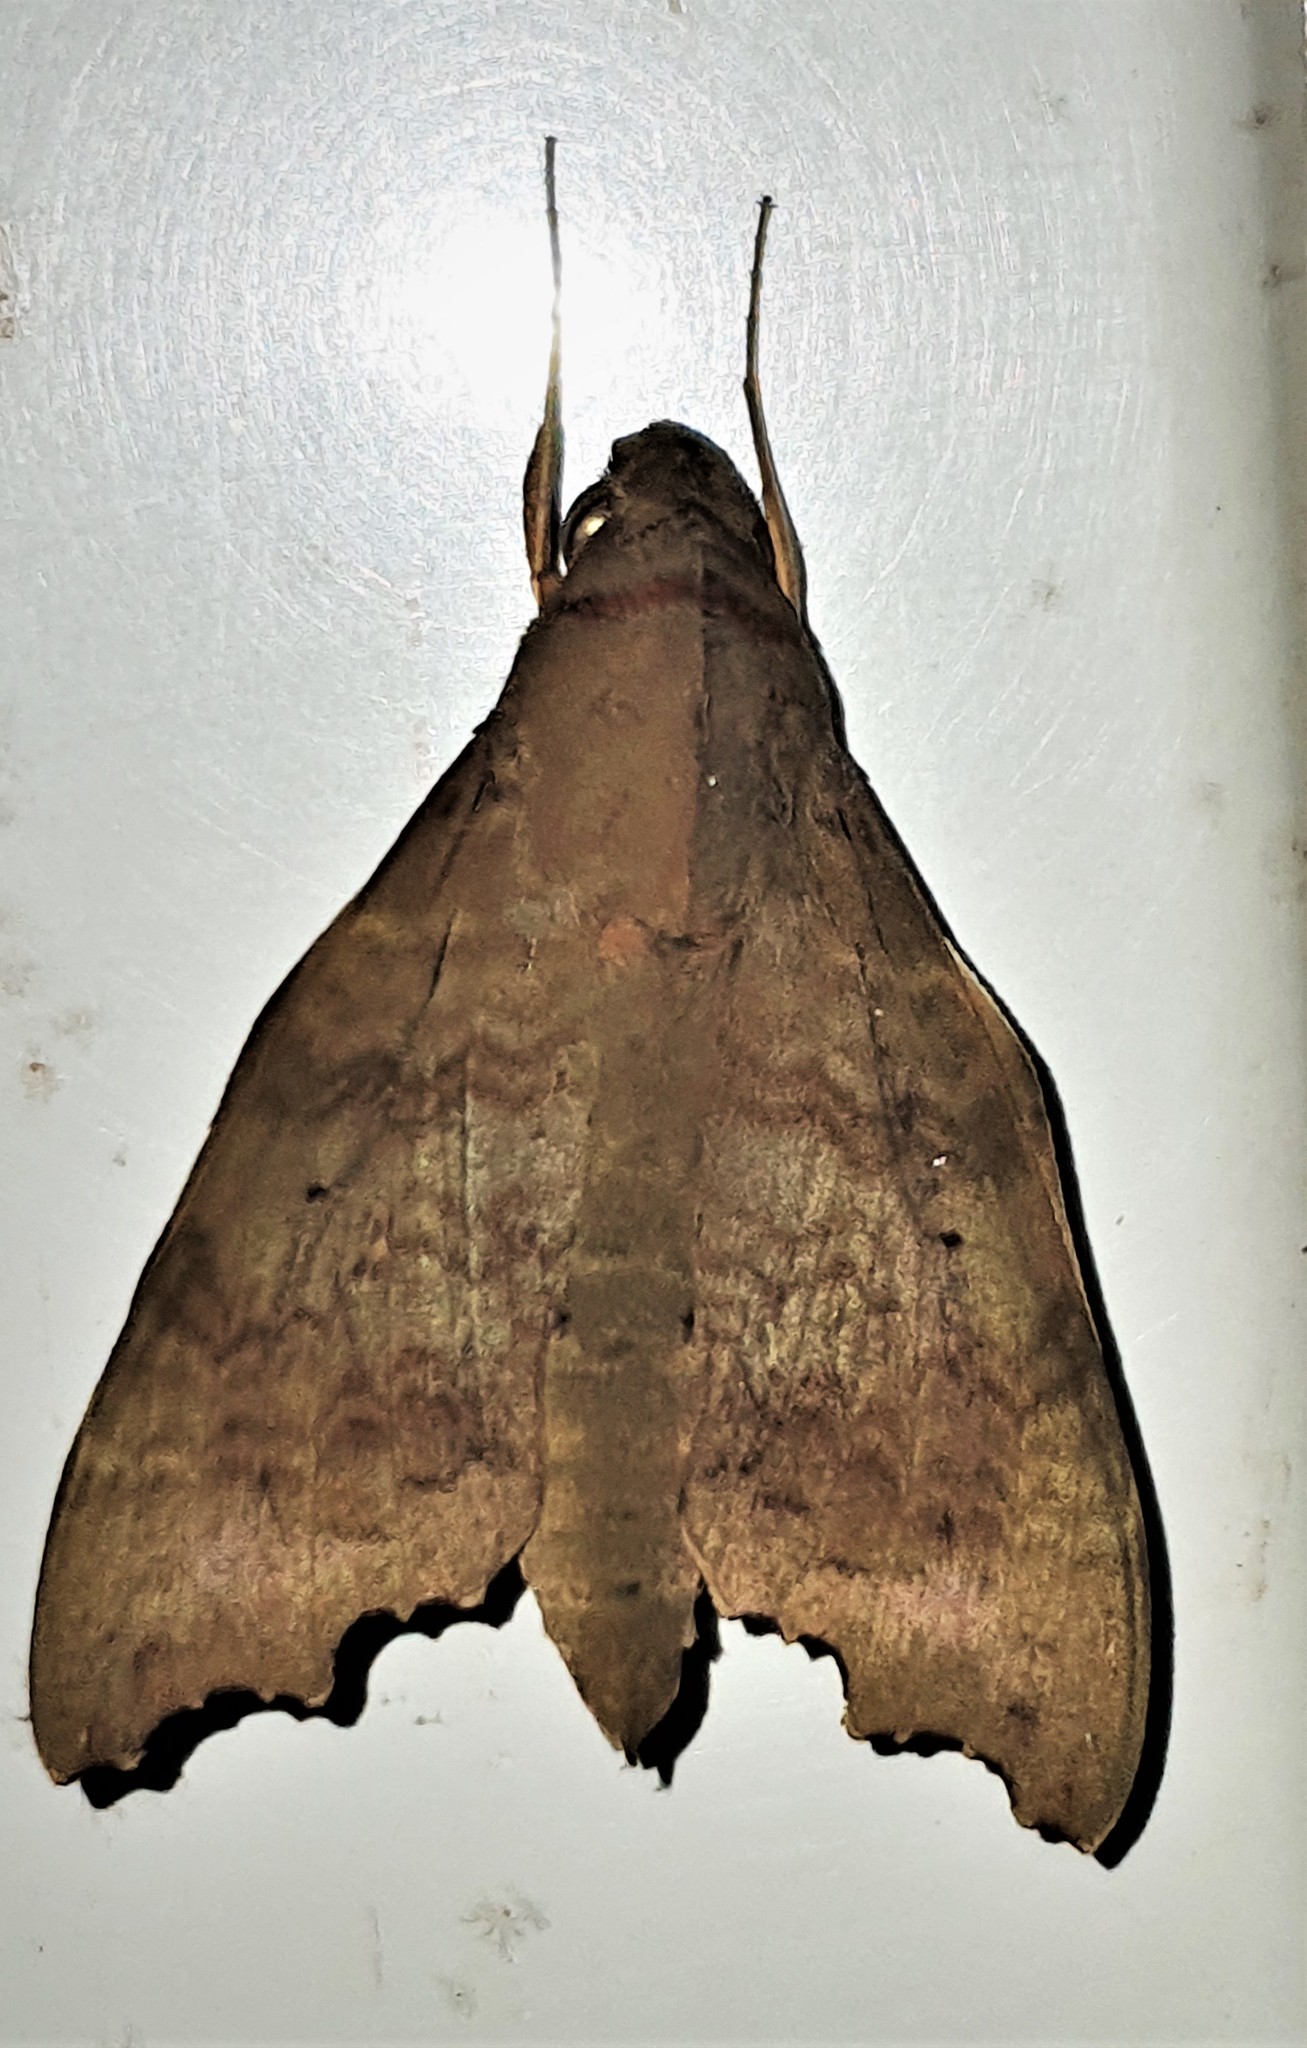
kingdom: Animalia
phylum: Arthropoda
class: Insecta
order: Lepidoptera
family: Sphingidae
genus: Aleuron
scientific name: Aleuron chloroptera
